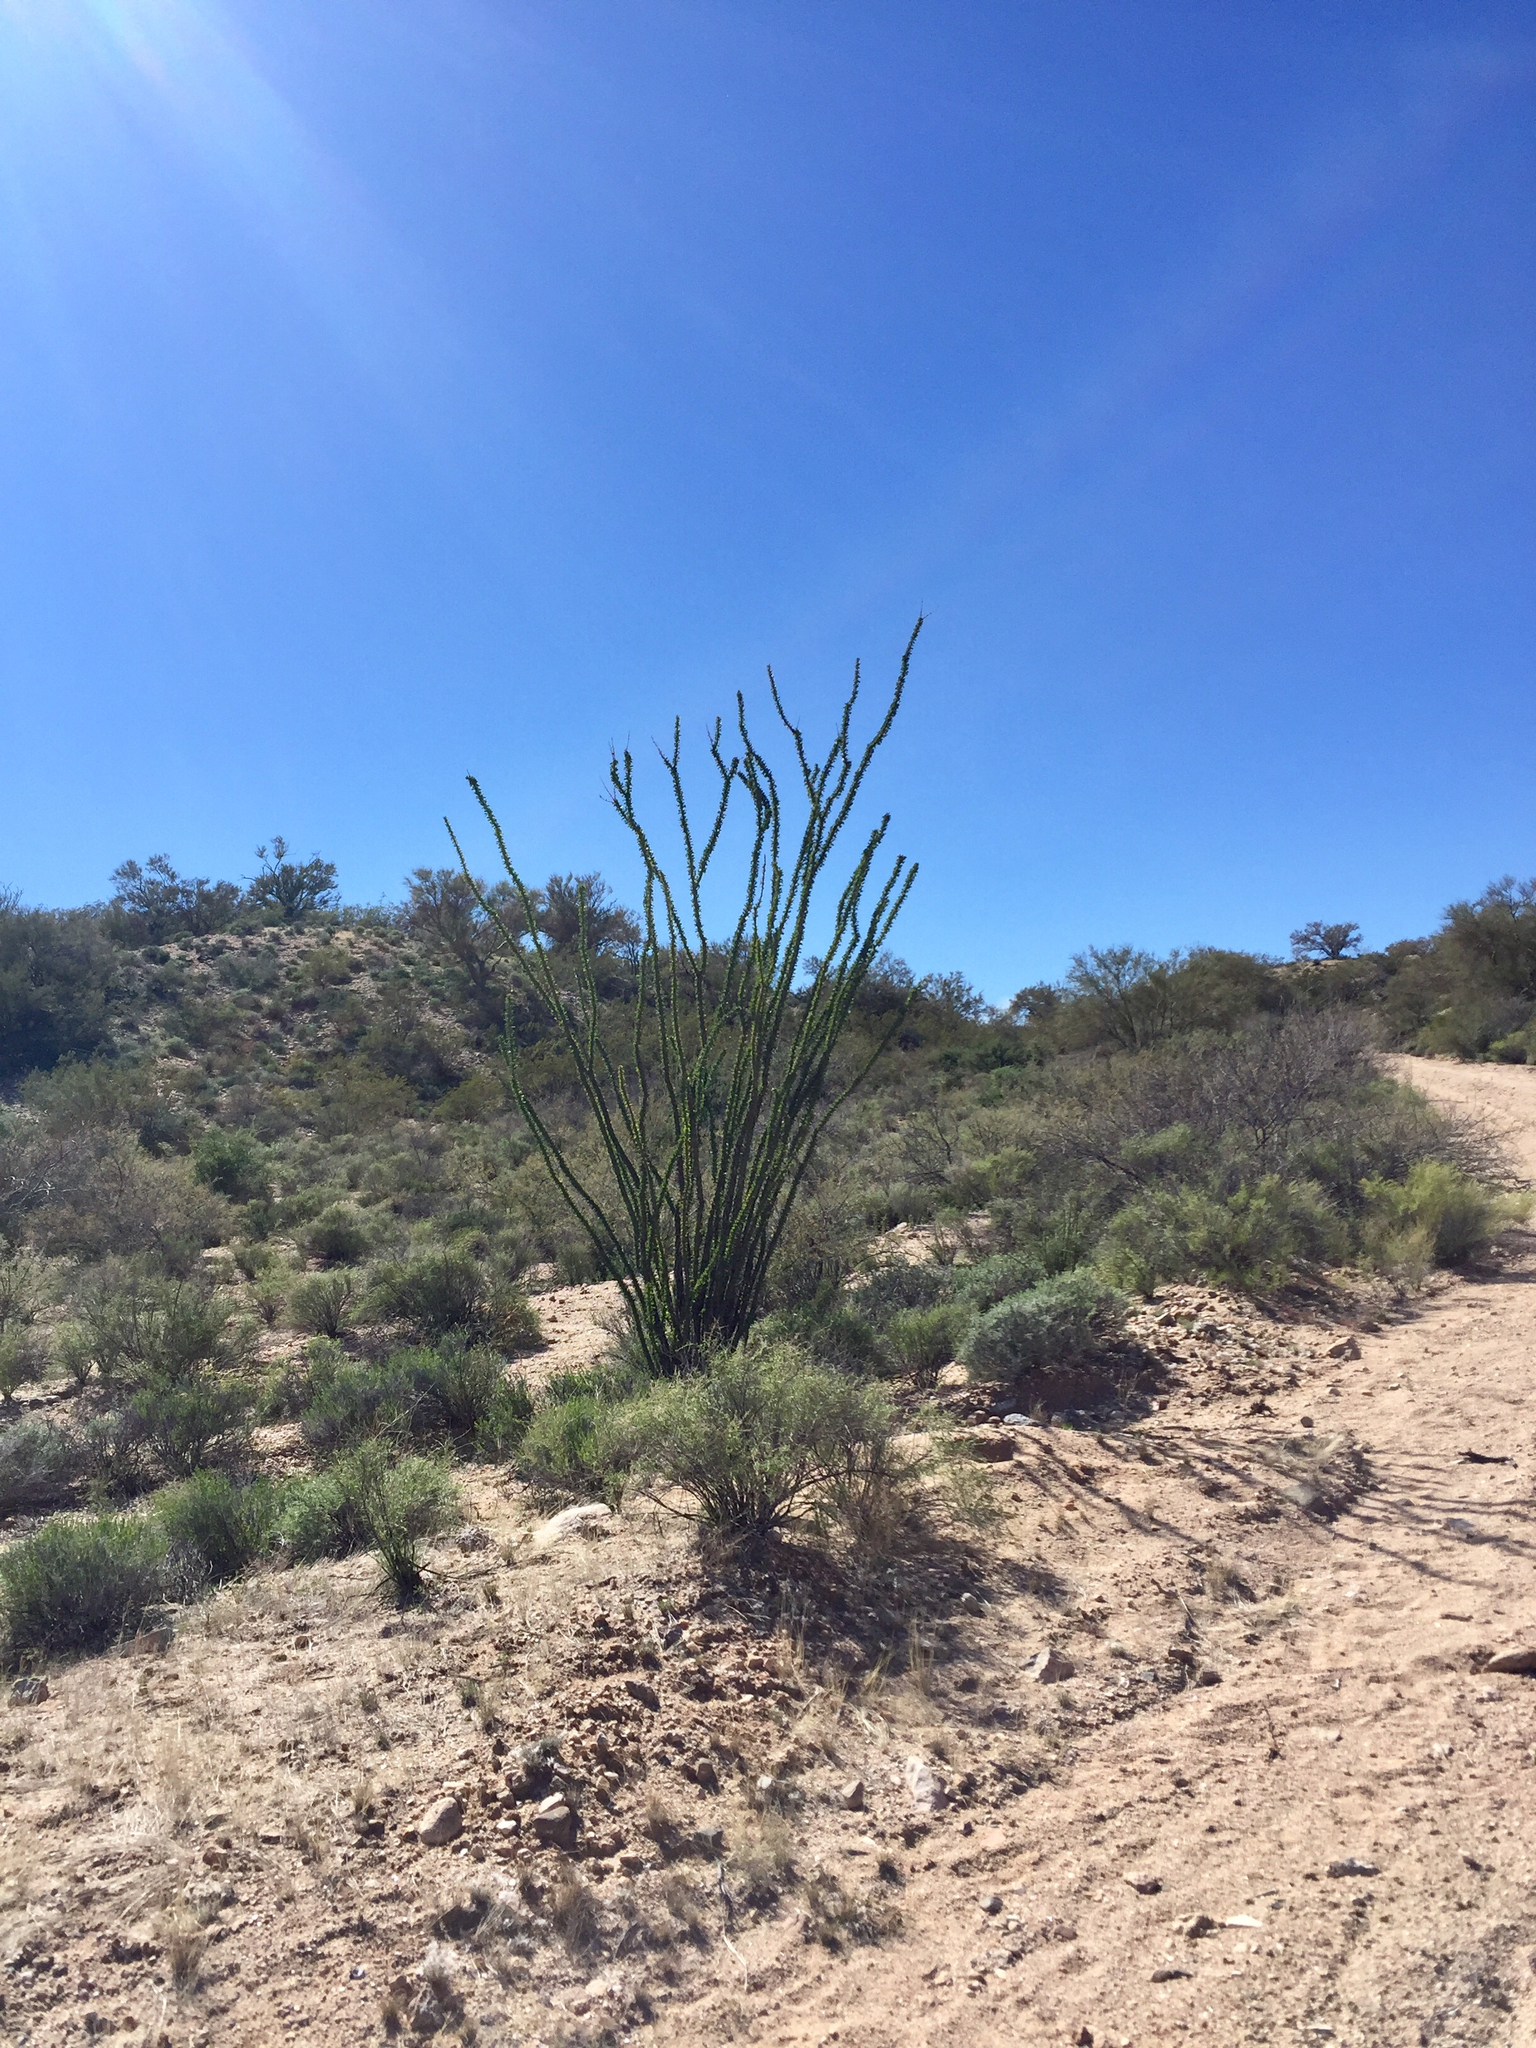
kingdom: Plantae
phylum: Tracheophyta
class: Magnoliopsida
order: Ericales
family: Fouquieriaceae
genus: Fouquieria
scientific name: Fouquieria splendens
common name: Vine-cactus
